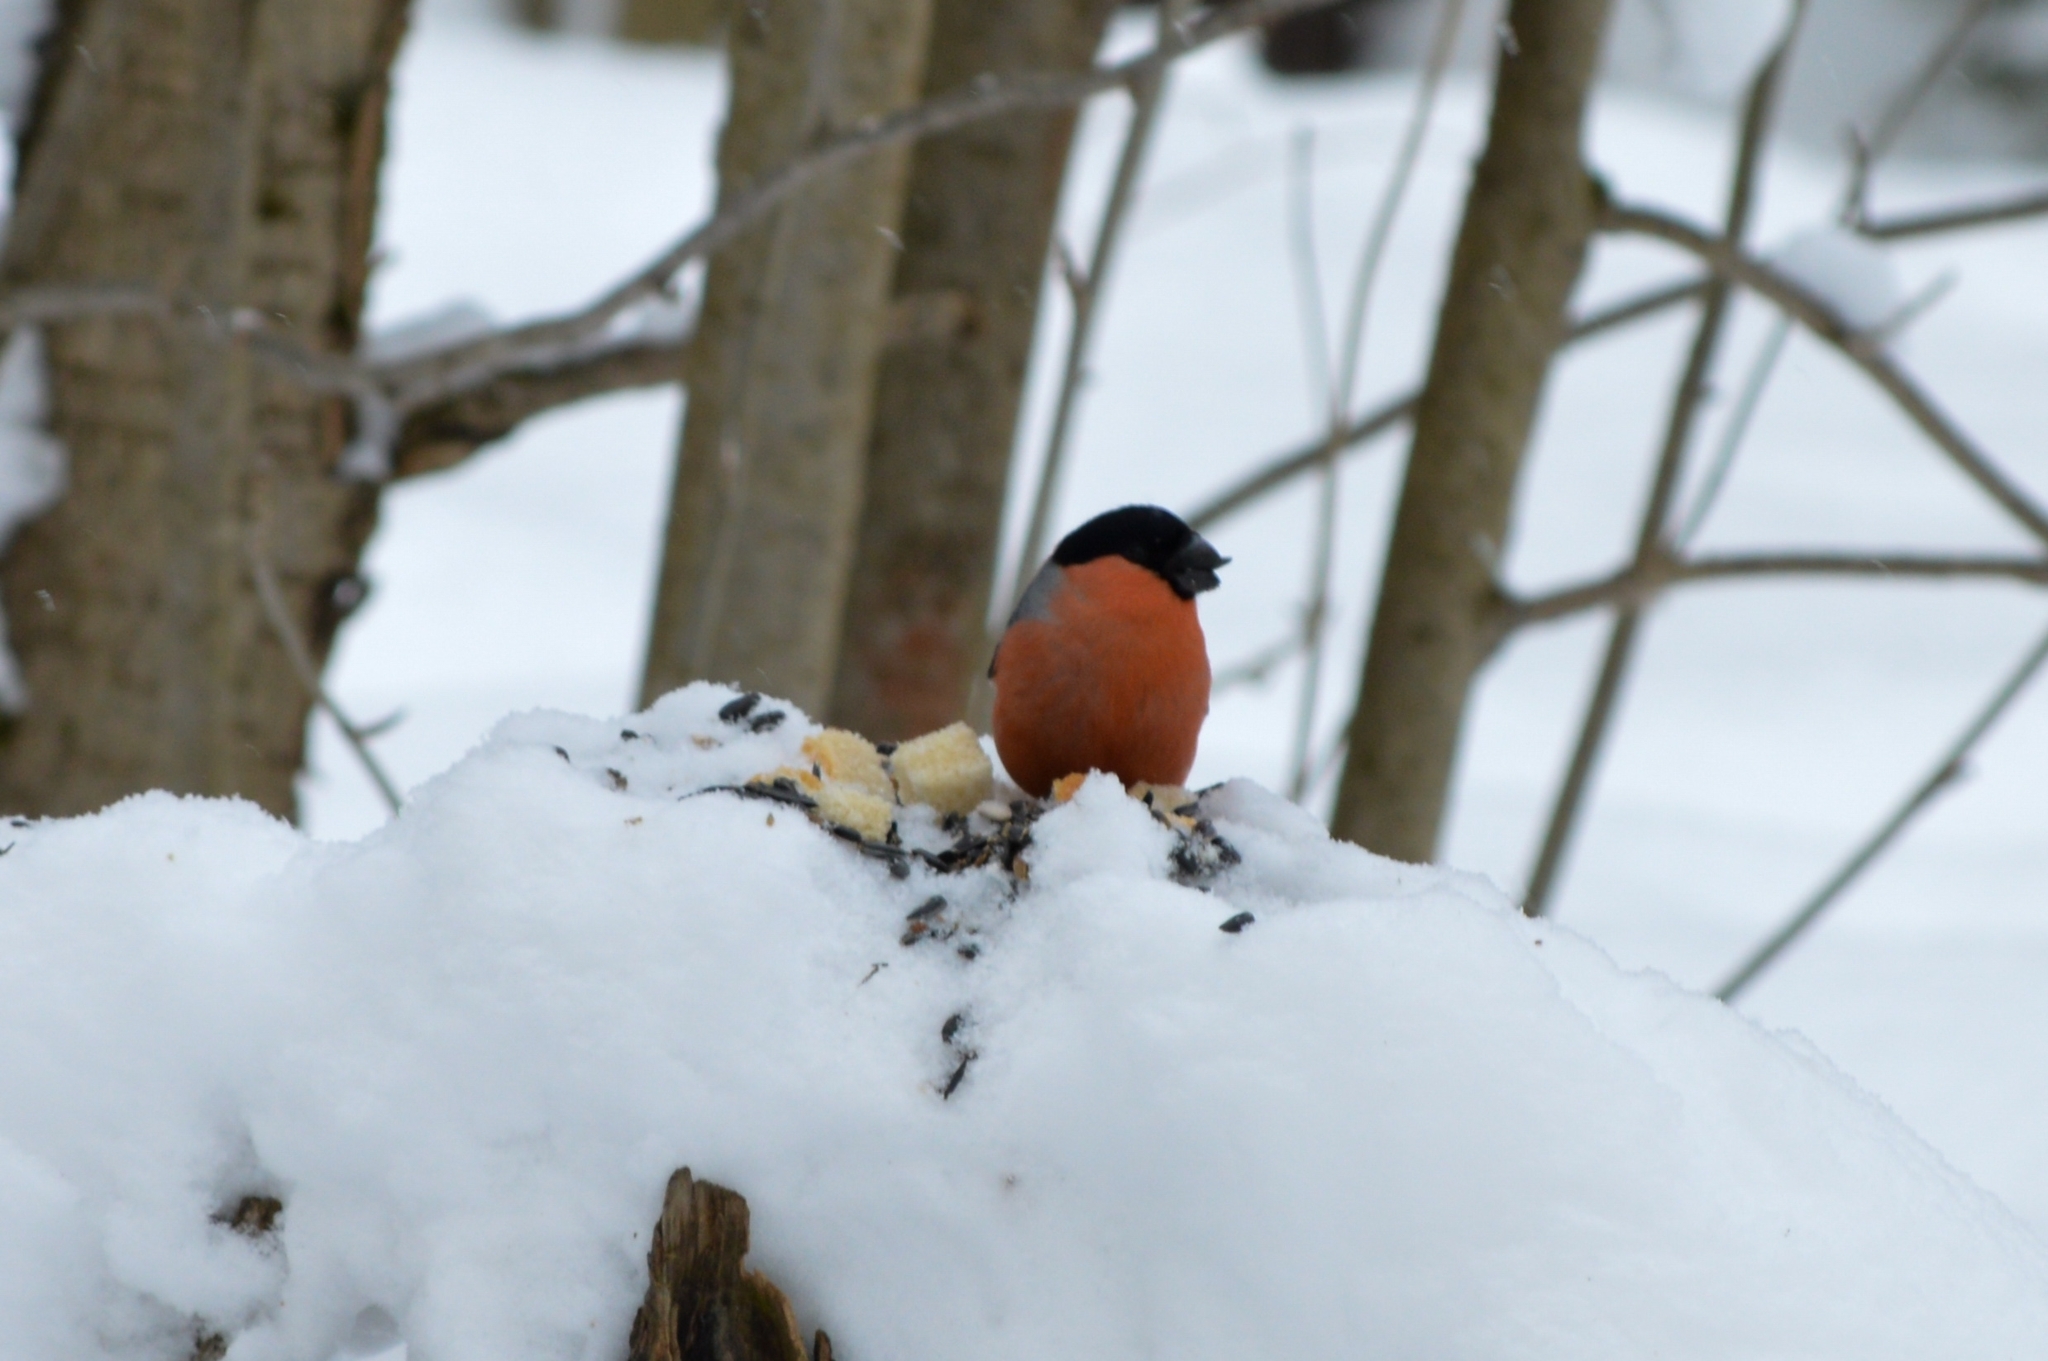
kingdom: Animalia
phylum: Chordata
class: Aves
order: Passeriformes
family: Fringillidae
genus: Pyrrhula
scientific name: Pyrrhula pyrrhula
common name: Eurasian bullfinch
